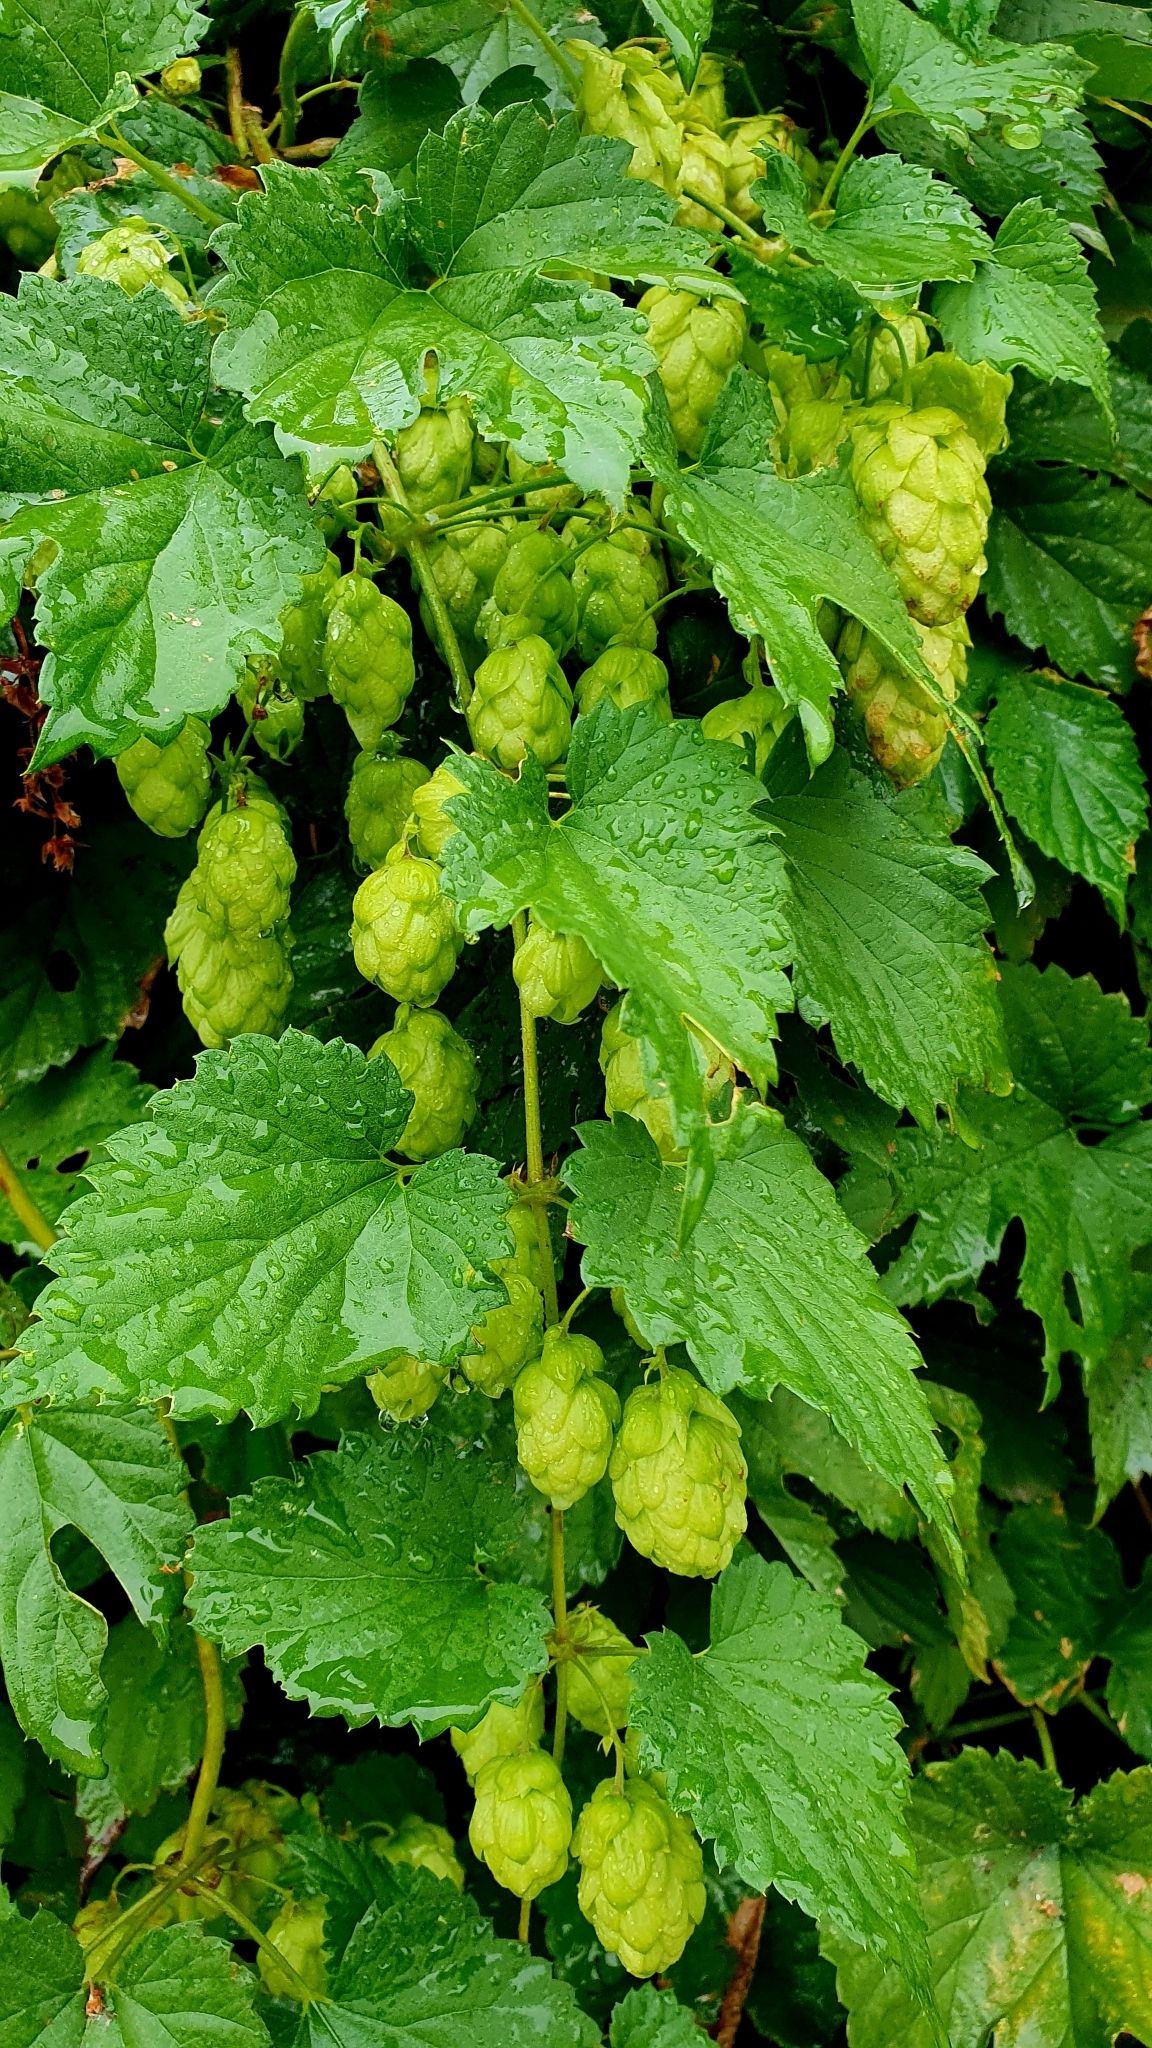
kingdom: Plantae
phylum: Tracheophyta
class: Magnoliopsida
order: Rosales
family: Cannabaceae
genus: Humulus
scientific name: Humulus lupulus
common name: Hop
